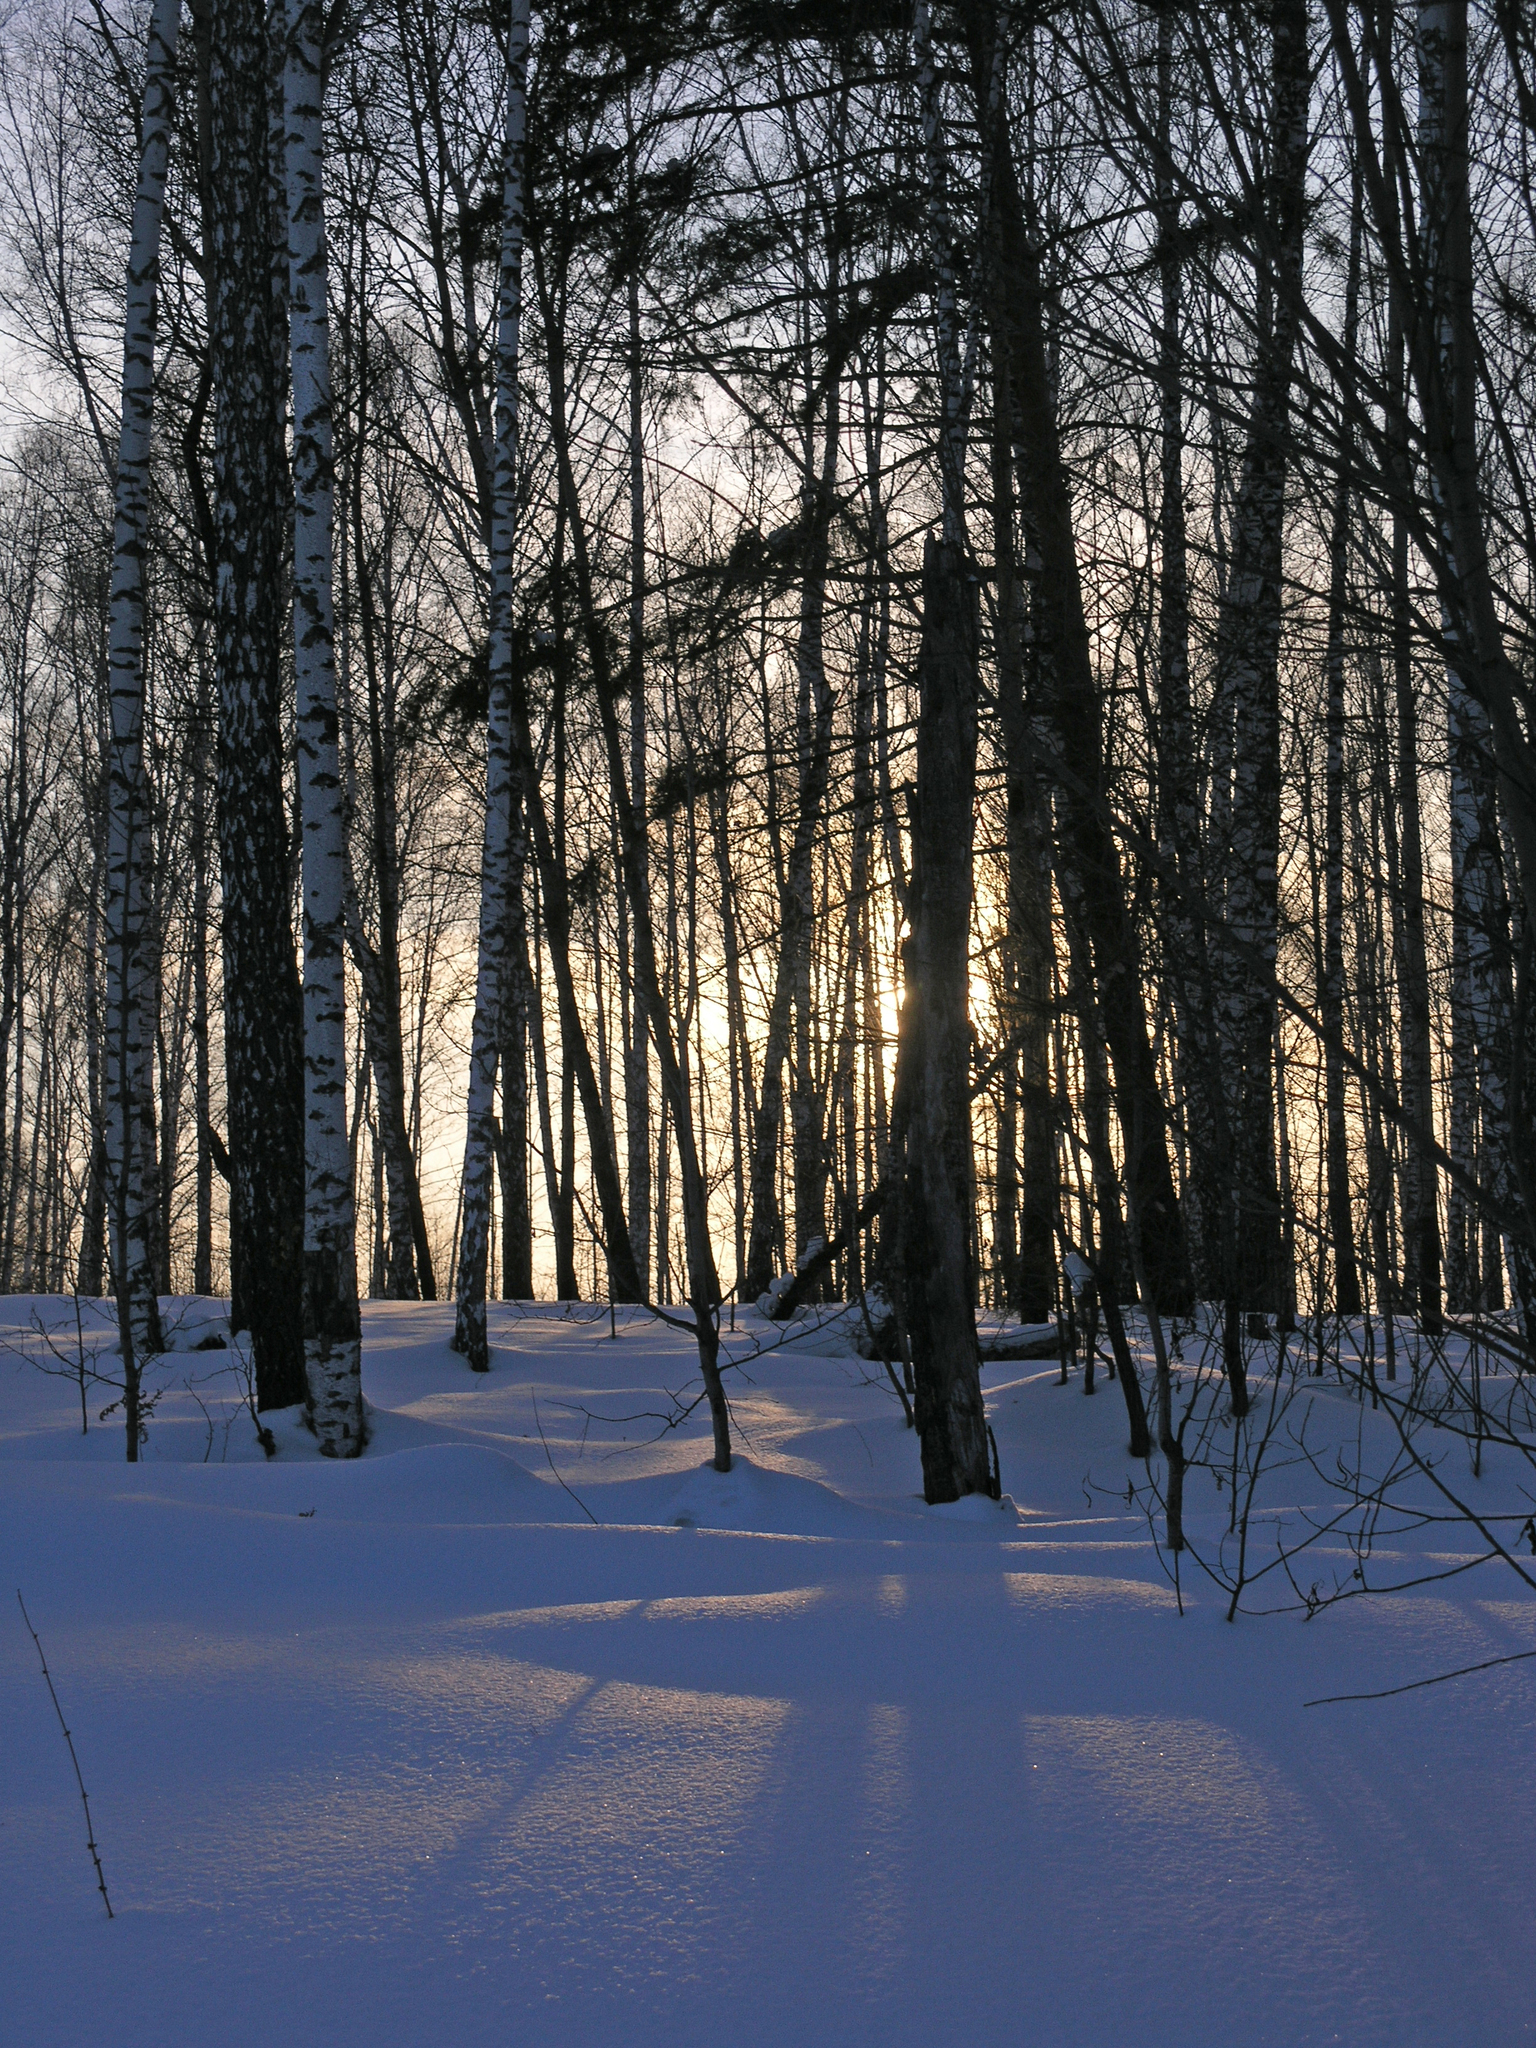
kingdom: Plantae
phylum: Tracheophyta
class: Magnoliopsida
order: Fagales
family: Betulaceae
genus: Betula
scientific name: Betula pendula
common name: Silver birch
